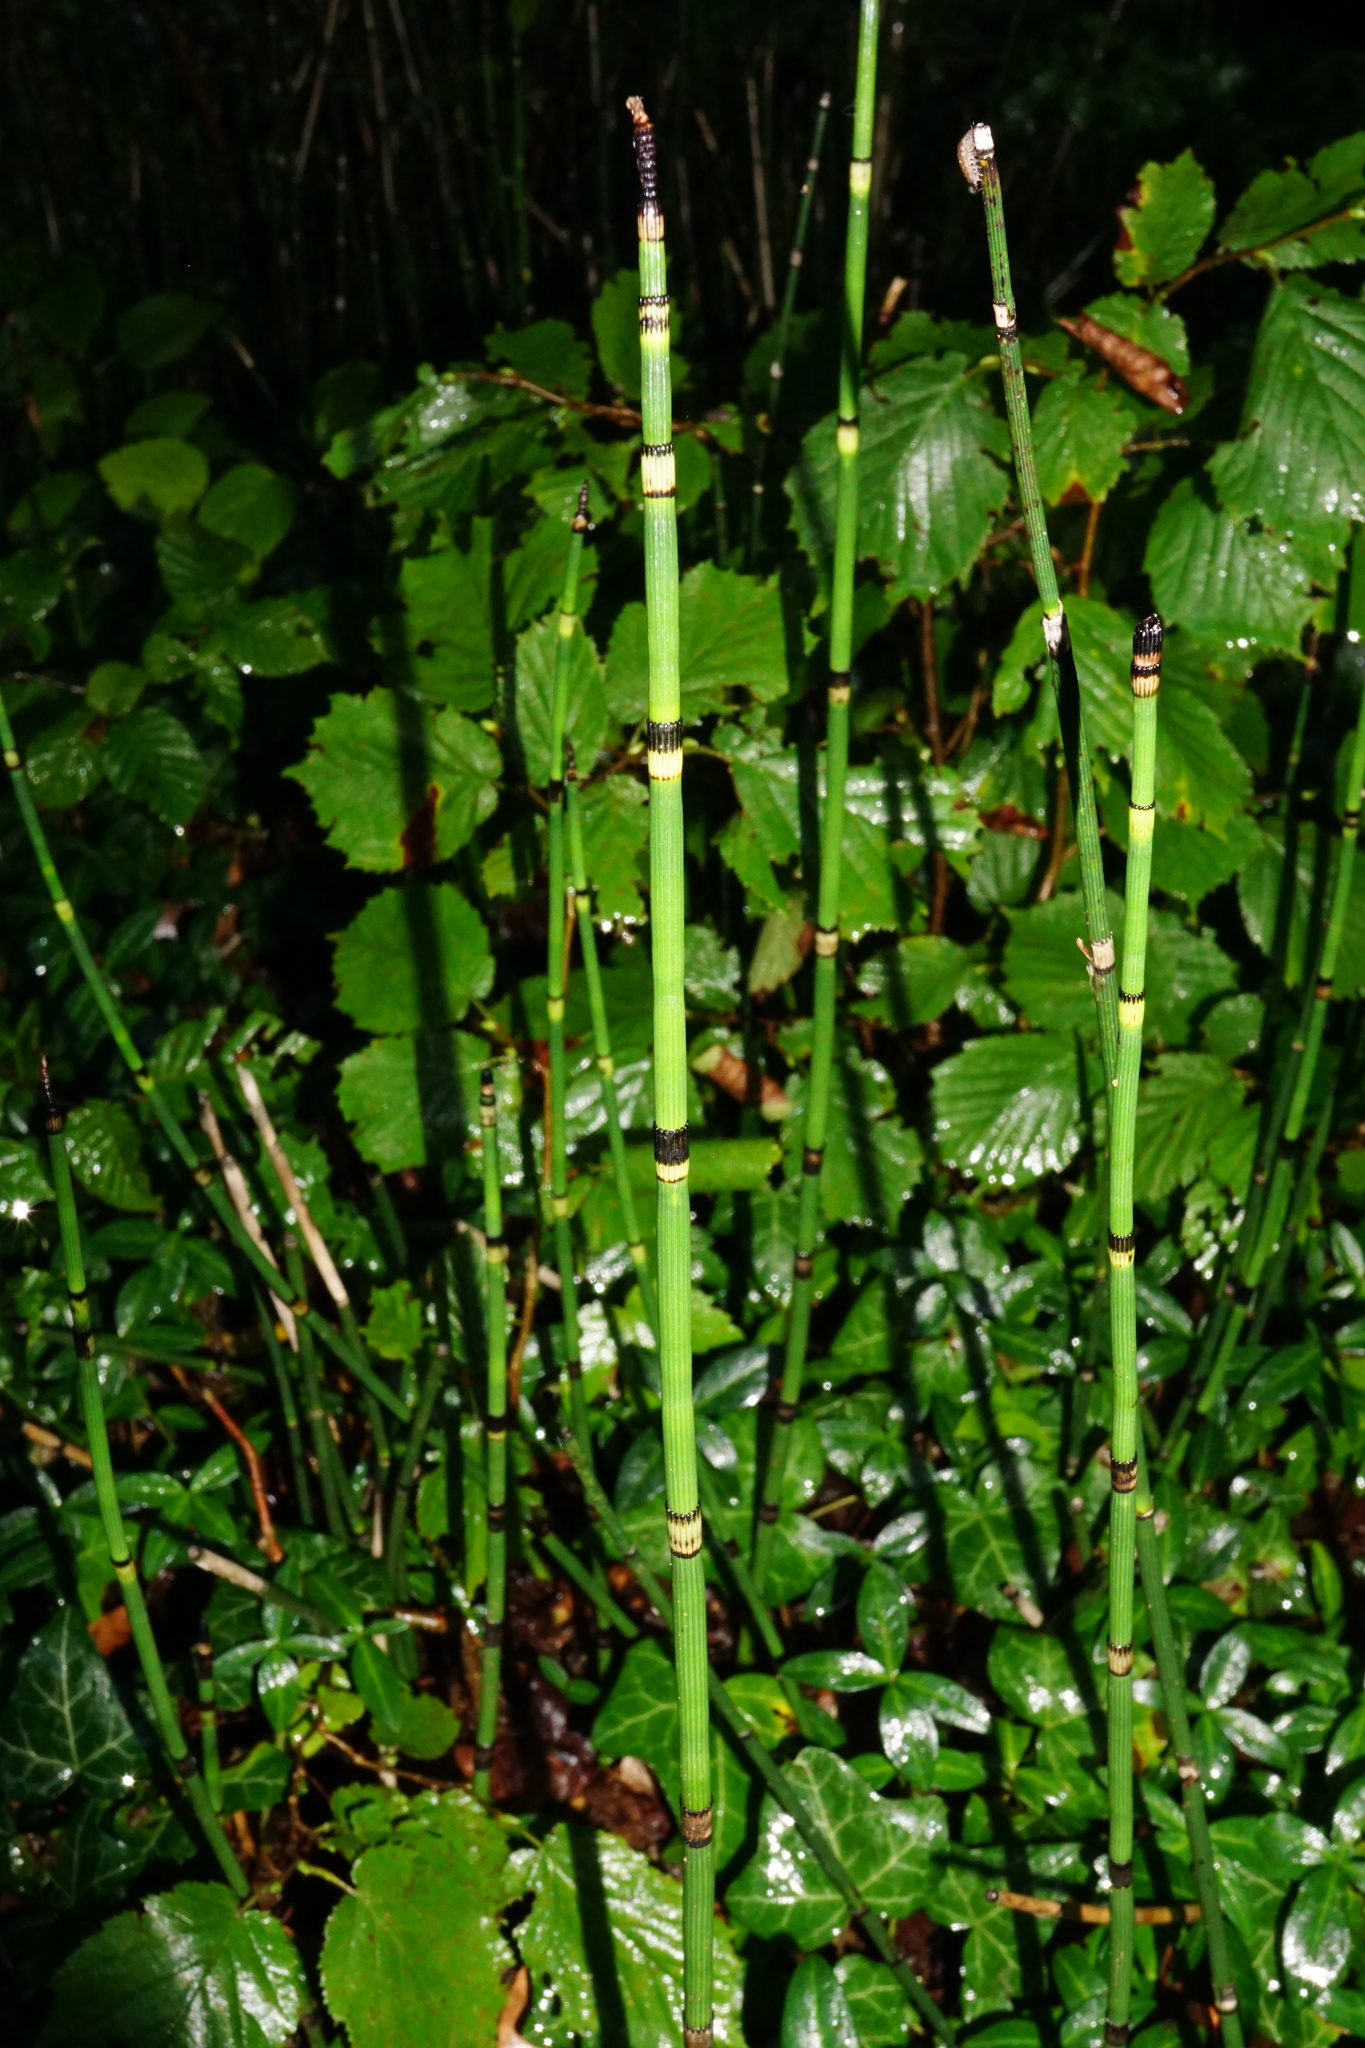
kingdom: Plantae
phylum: Tracheophyta
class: Polypodiopsida
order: Equisetales
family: Equisetaceae
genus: Equisetum
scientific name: Equisetum hyemale
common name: Rough horsetail
